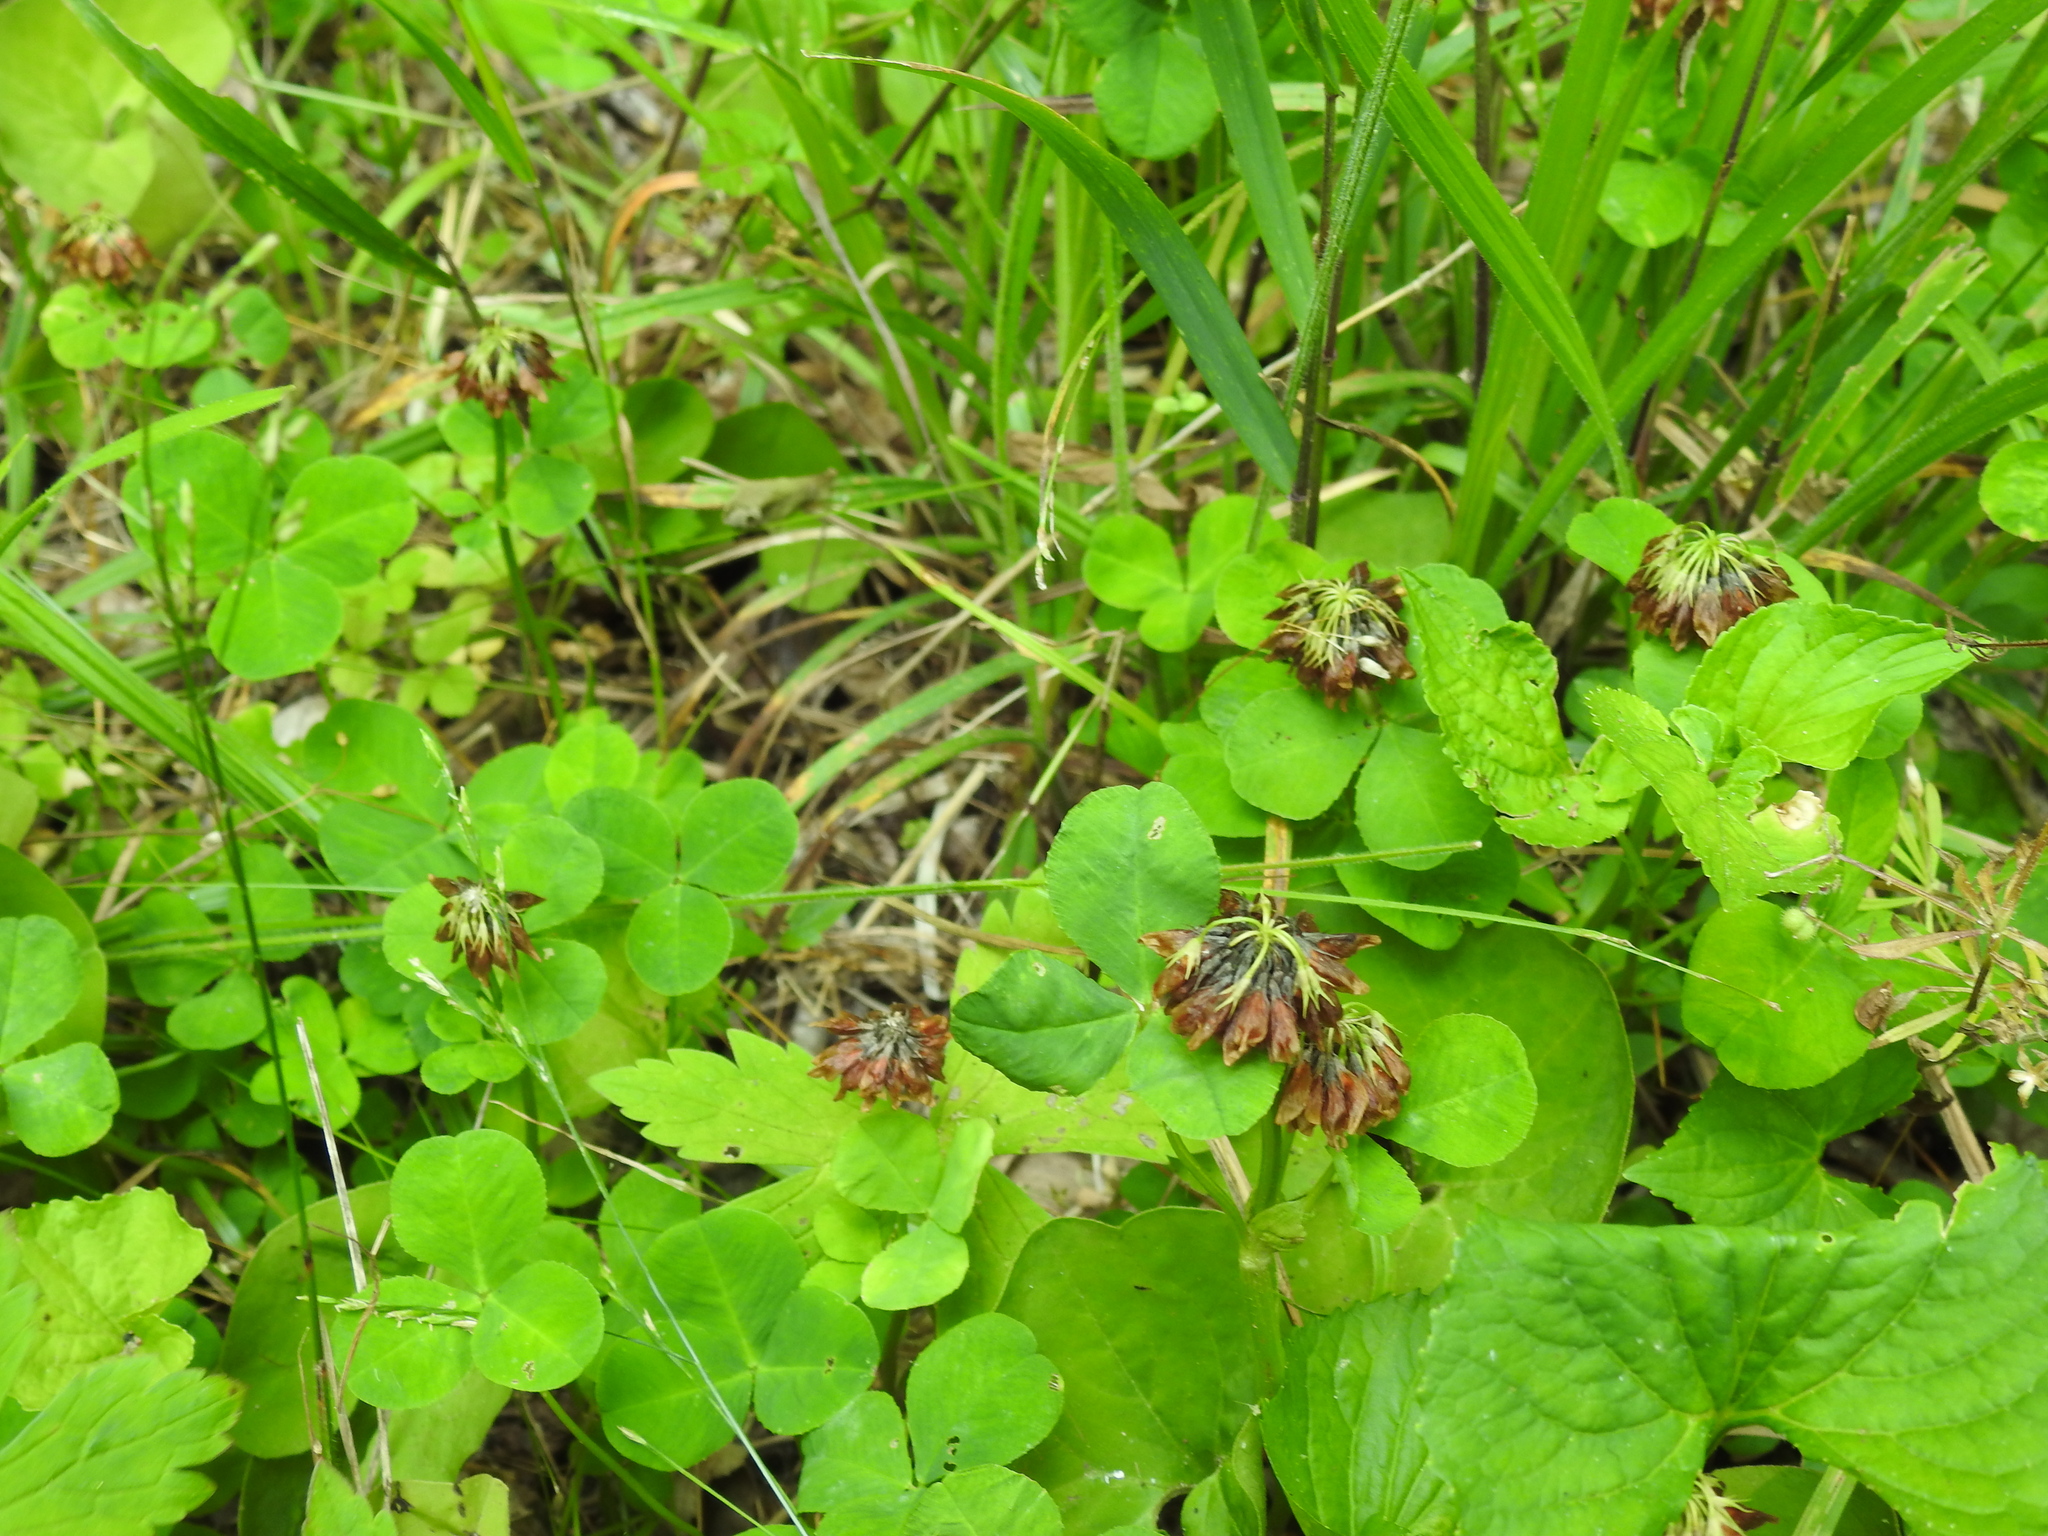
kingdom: Plantae
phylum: Tracheophyta
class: Magnoliopsida
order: Fabales
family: Fabaceae
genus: Trifolium
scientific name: Trifolium stoloniferum
